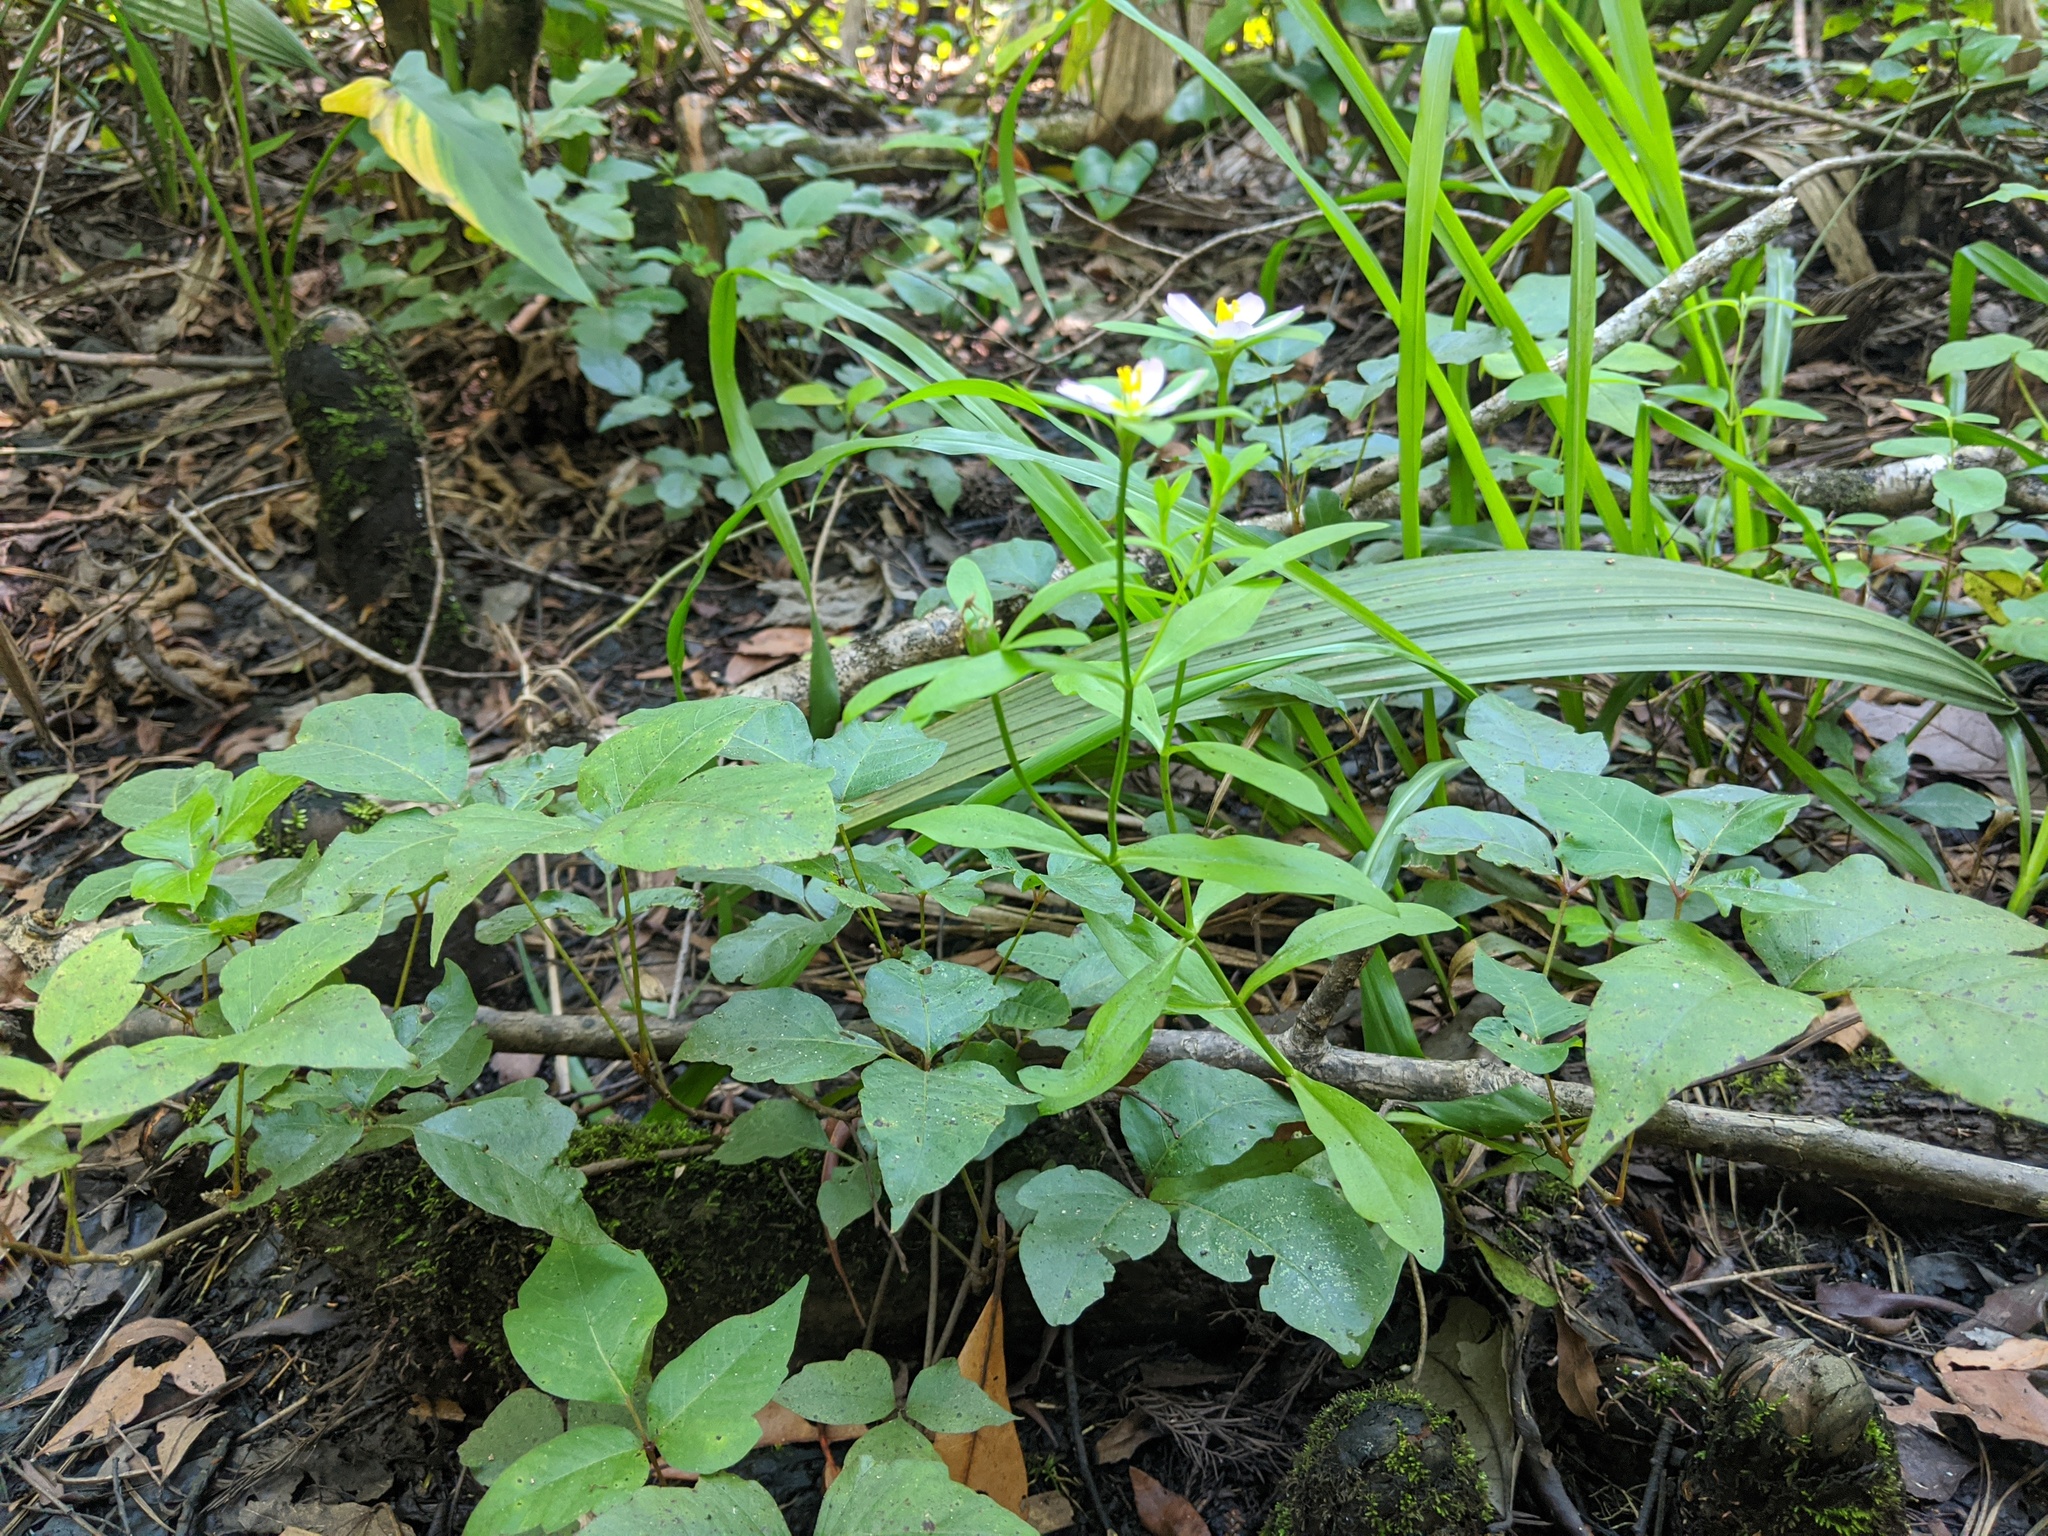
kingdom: Plantae
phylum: Tracheophyta
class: Magnoliopsida
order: Gentianales
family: Gentianaceae
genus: Sabatia
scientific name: Sabatia calycina
